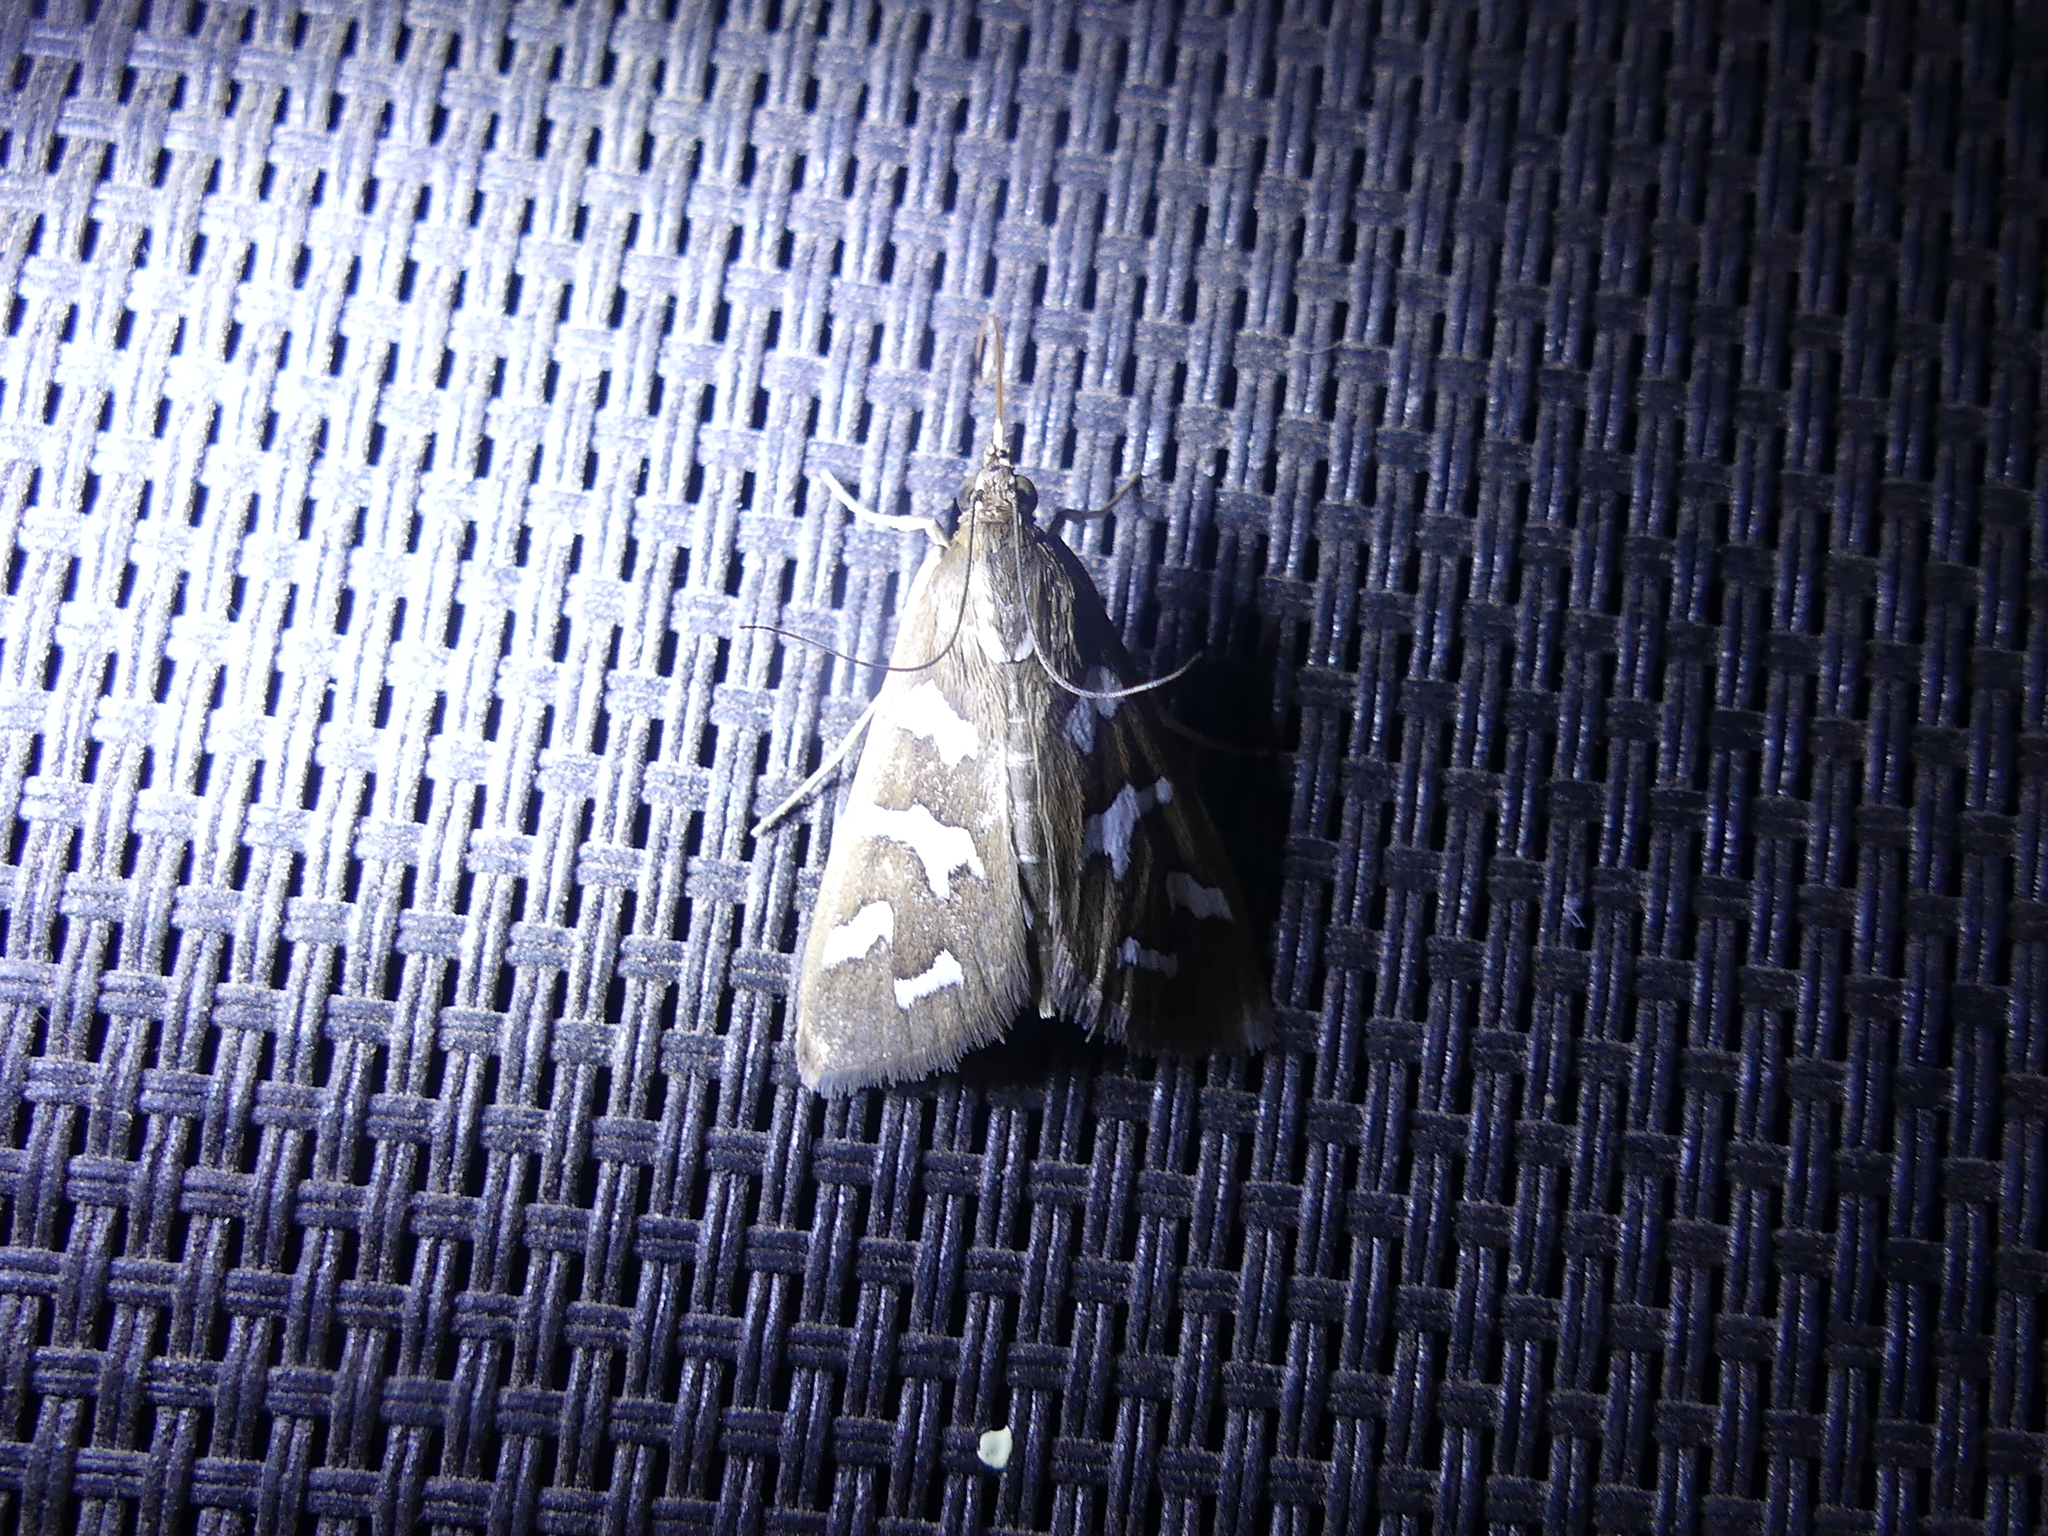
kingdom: Animalia
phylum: Arthropoda
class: Insecta
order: Lepidoptera
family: Crambidae
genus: Diastictis
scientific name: Diastictis fracturalis
